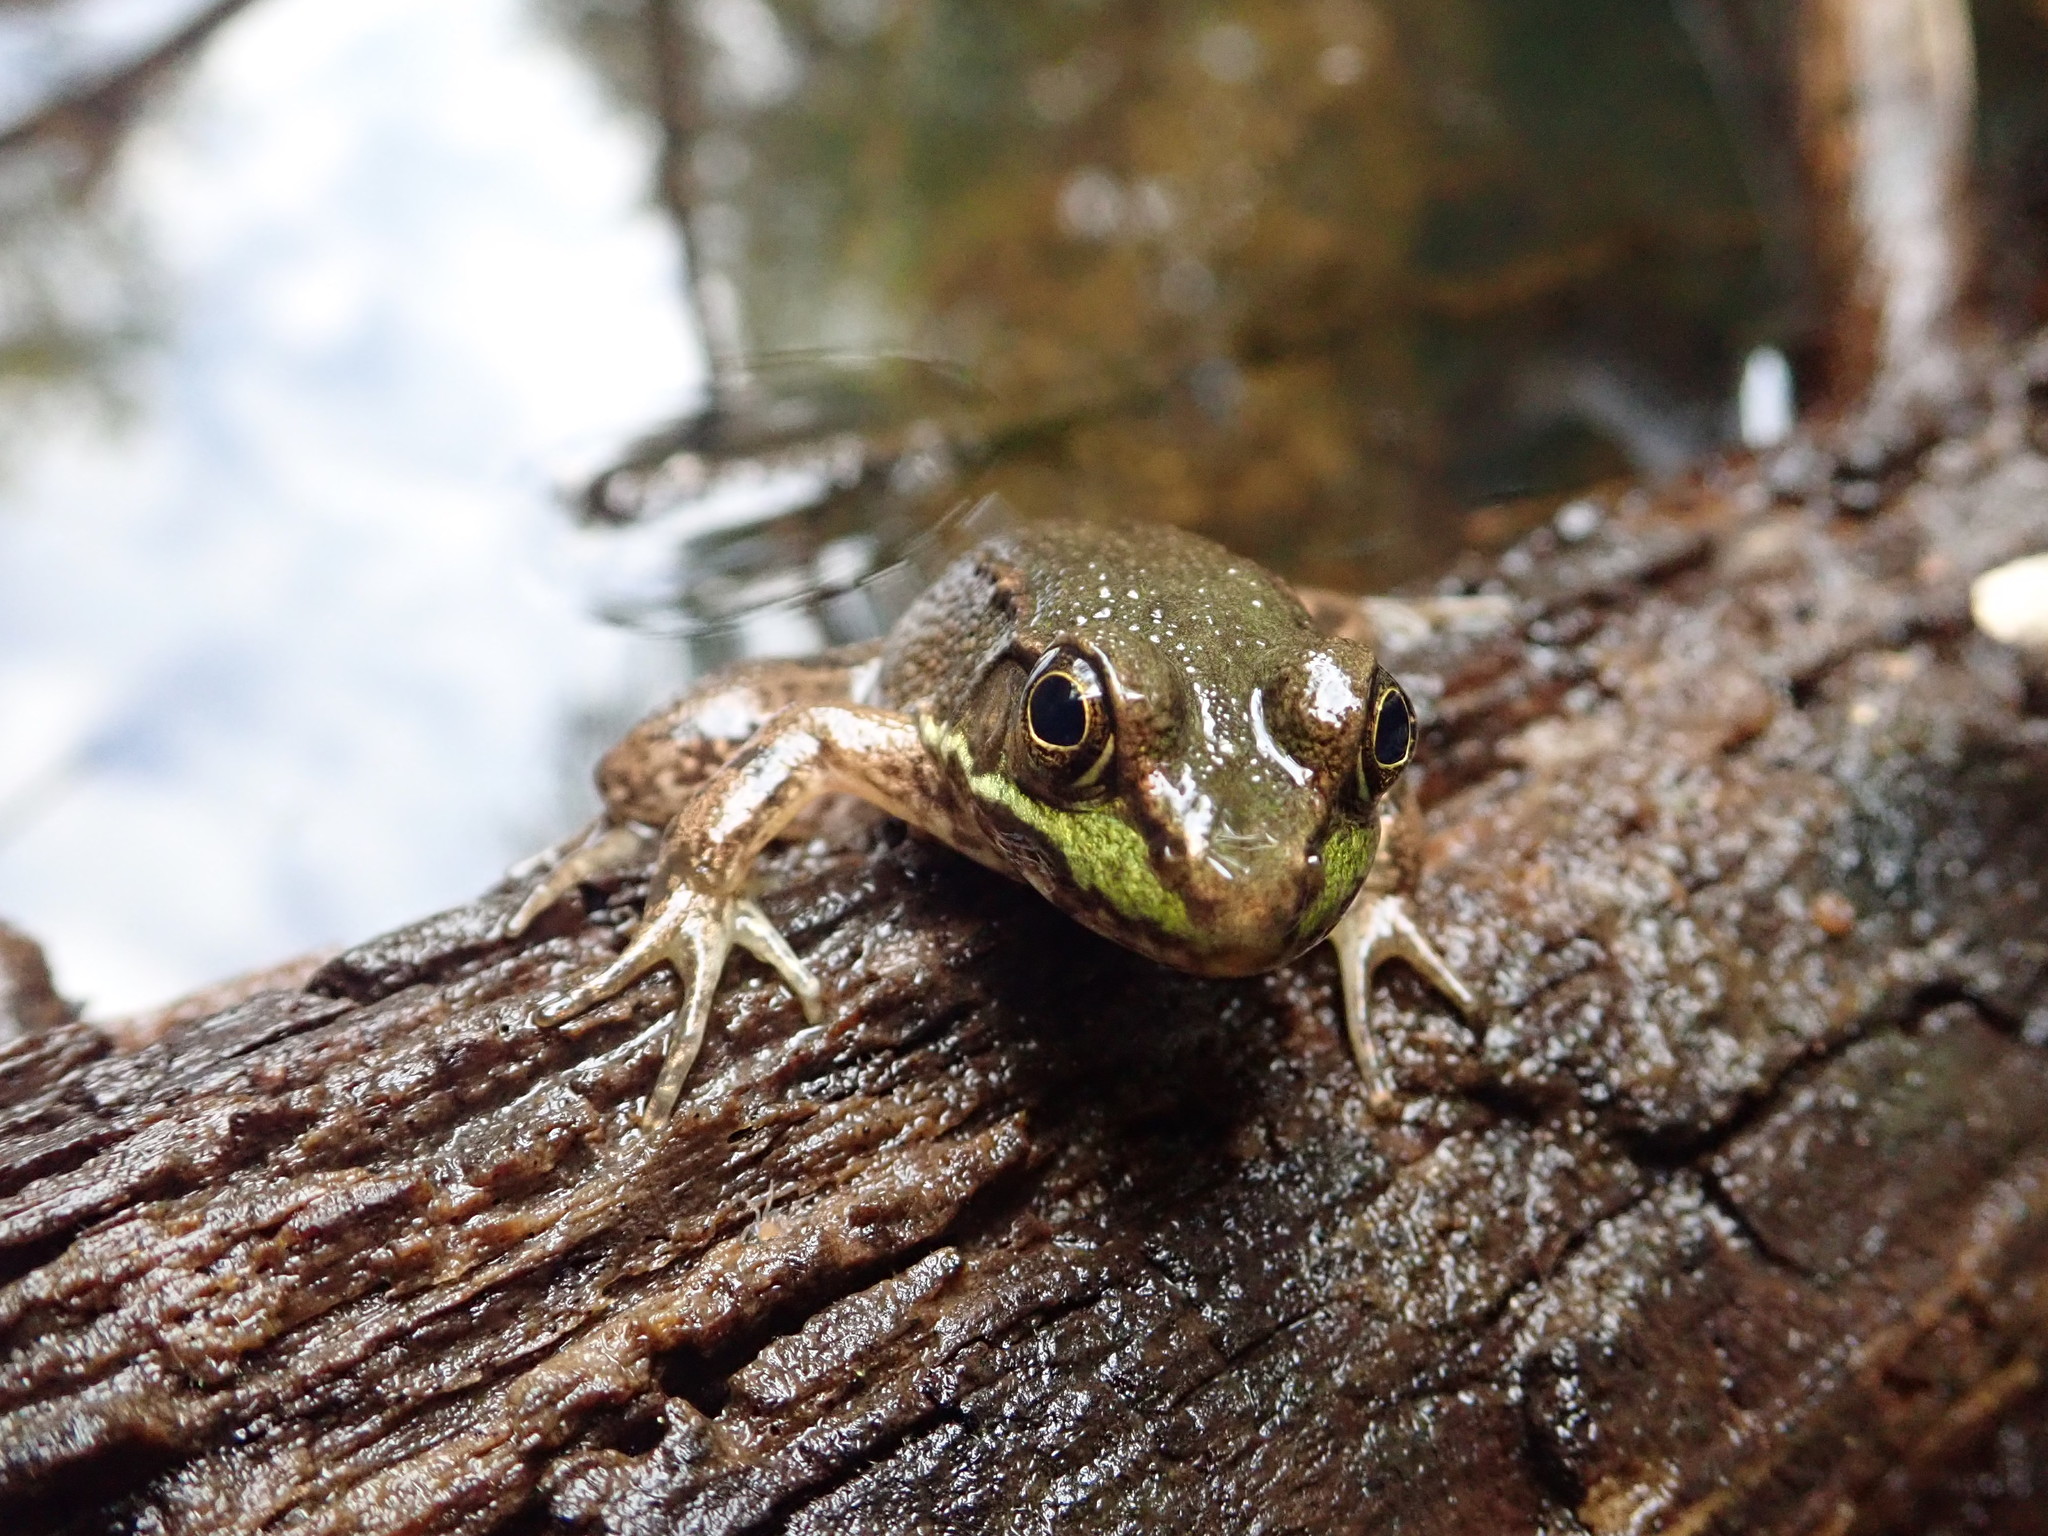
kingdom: Animalia
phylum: Chordata
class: Amphibia
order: Anura
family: Ranidae
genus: Lithobates
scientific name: Lithobates clamitans
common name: Green frog
